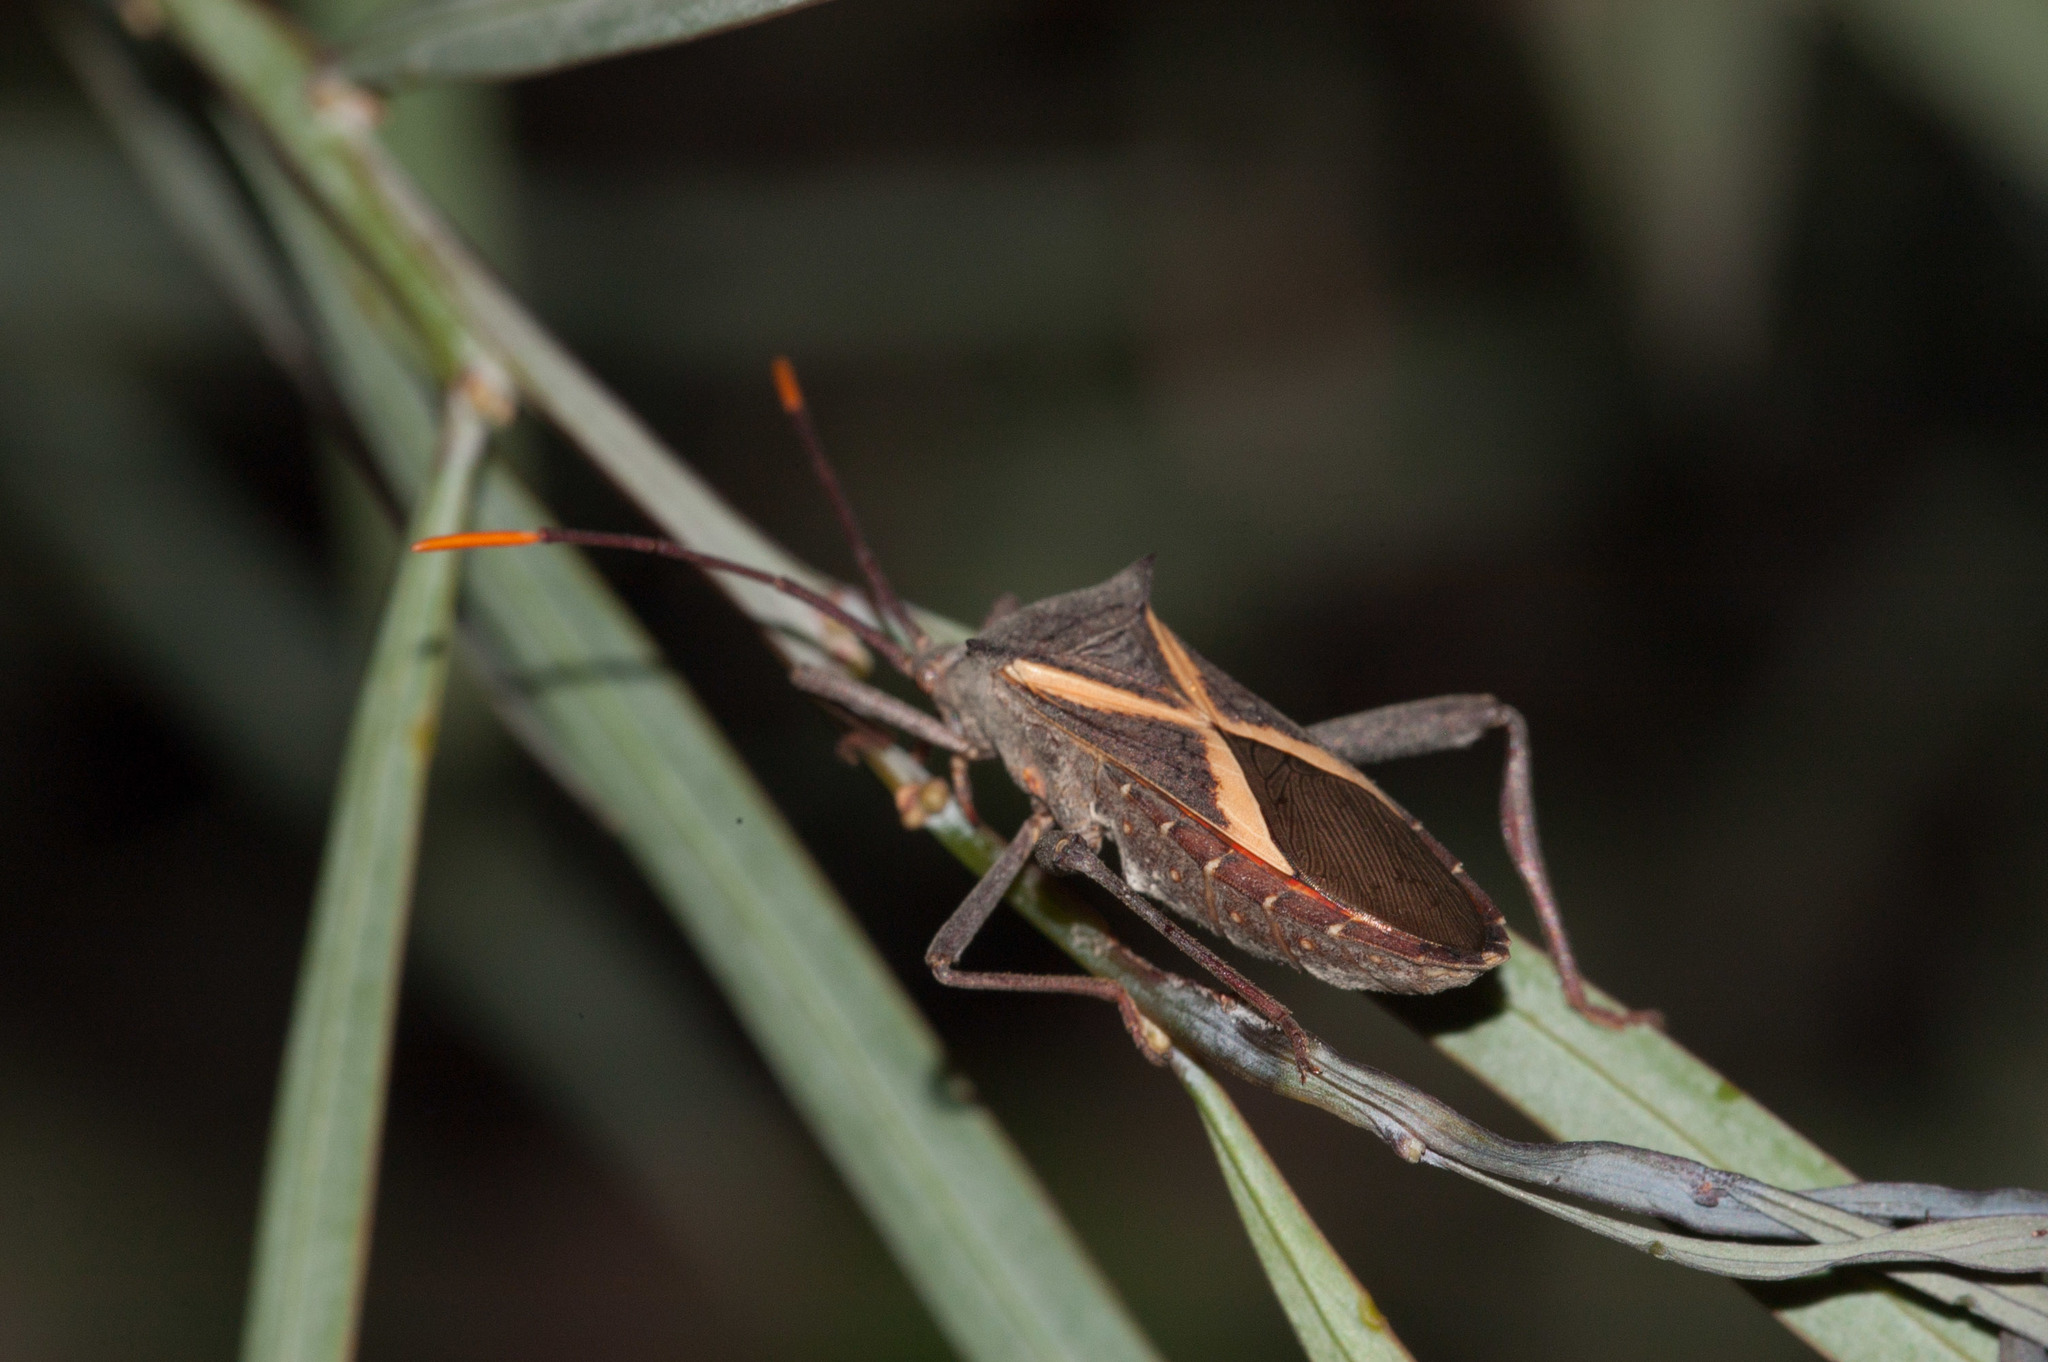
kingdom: Animalia
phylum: Arthropoda
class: Insecta
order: Hemiptera
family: Coreidae
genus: Mictis
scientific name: Mictis profana
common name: Crusader bug
